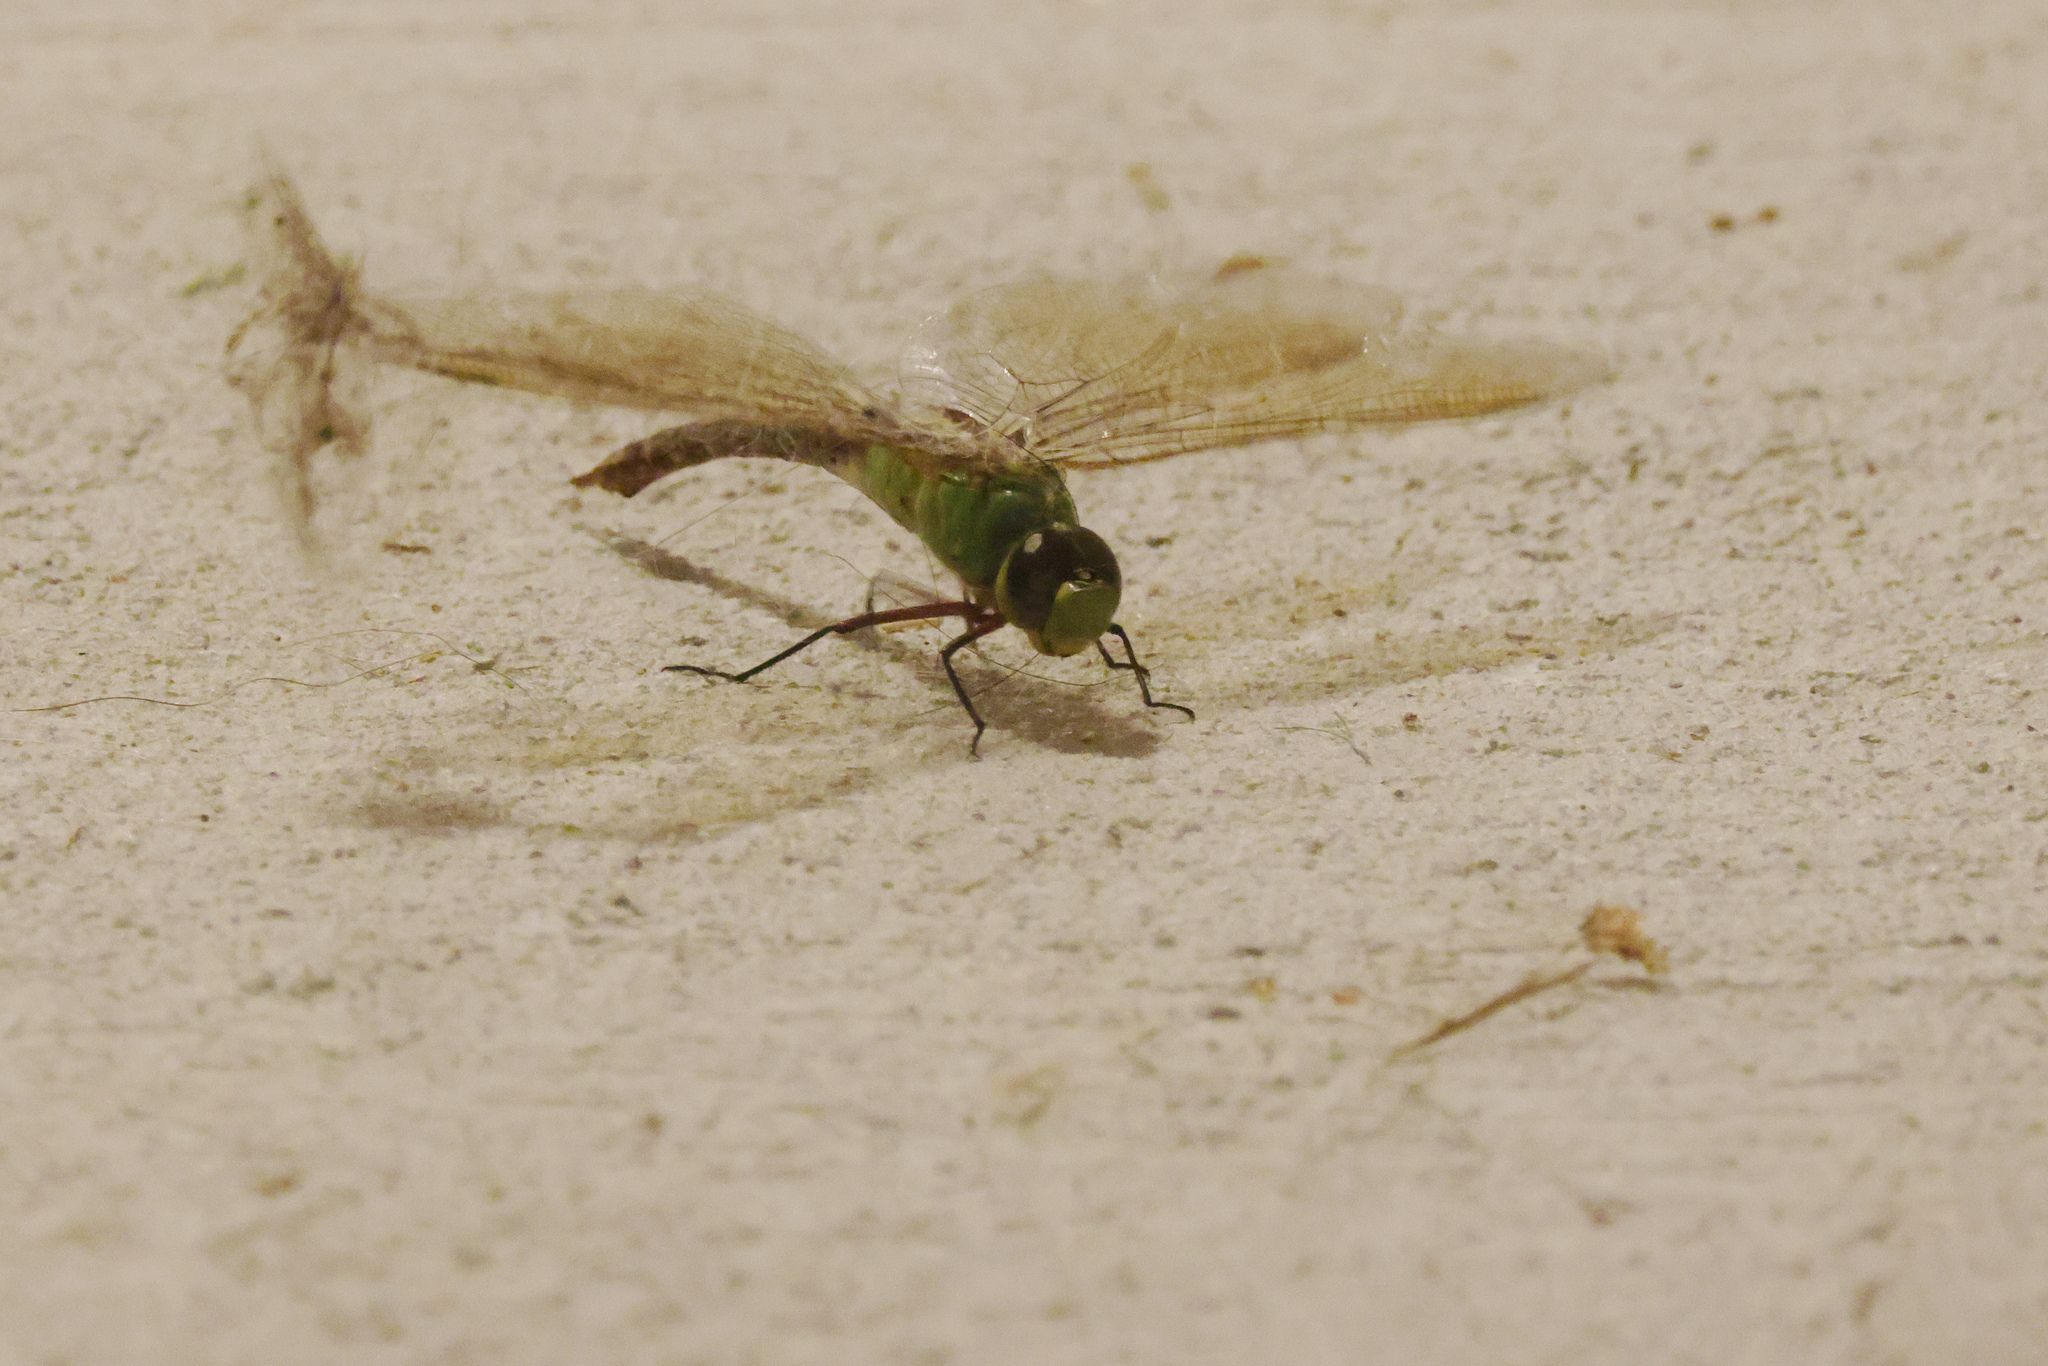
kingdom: Animalia
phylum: Arthropoda
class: Insecta
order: Odonata
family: Aeshnidae
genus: Anax
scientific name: Anax junius
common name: Common green darner
